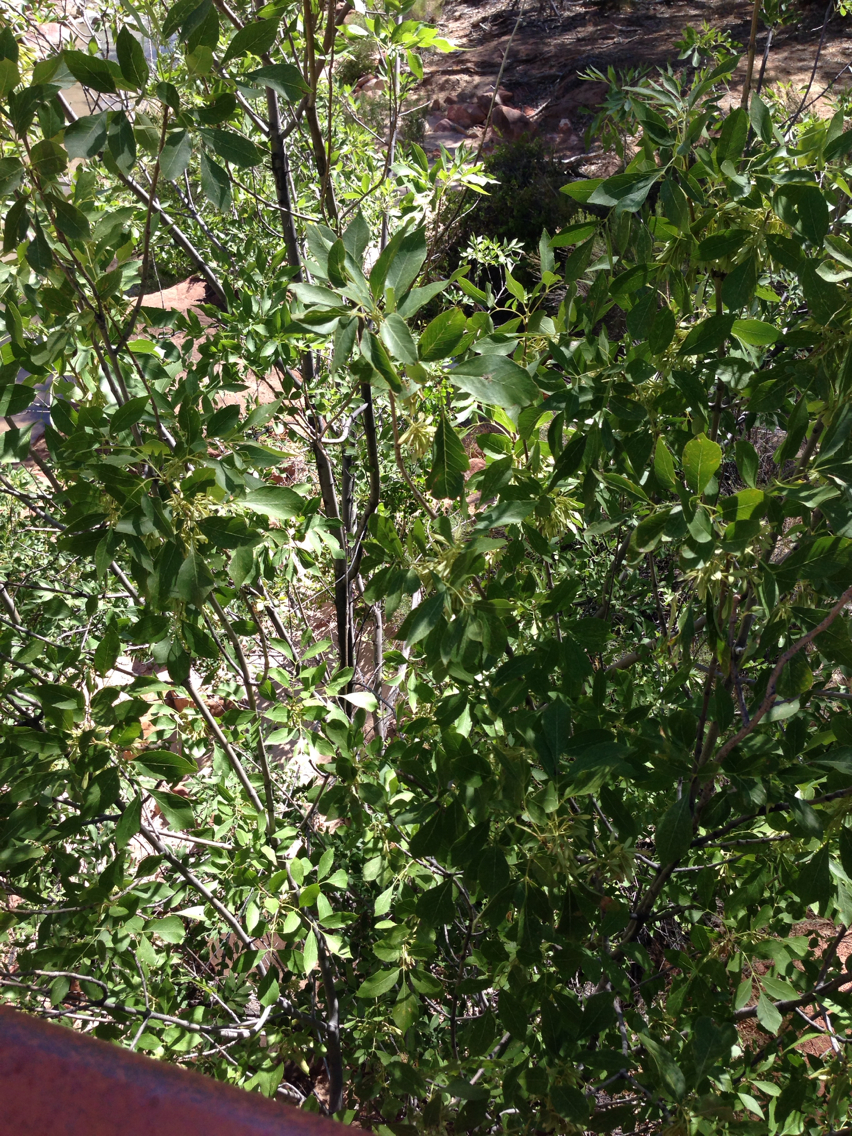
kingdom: Plantae
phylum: Tracheophyta
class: Magnoliopsida
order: Lamiales
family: Oleaceae
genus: Fraxinus
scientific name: Fraxinus velutina
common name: Arizon ash
